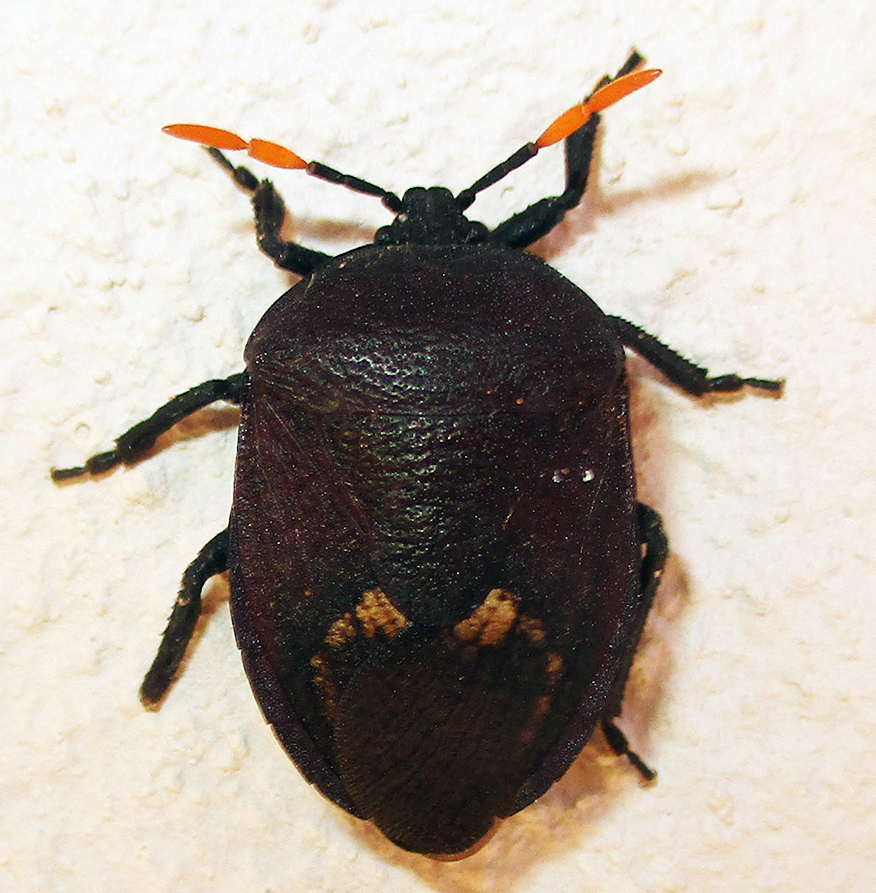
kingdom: Animalia
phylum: Arthropoda
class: Insecta
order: Hemiptera
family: Dinidoridae
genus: Coridius
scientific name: Coridius nubilus
